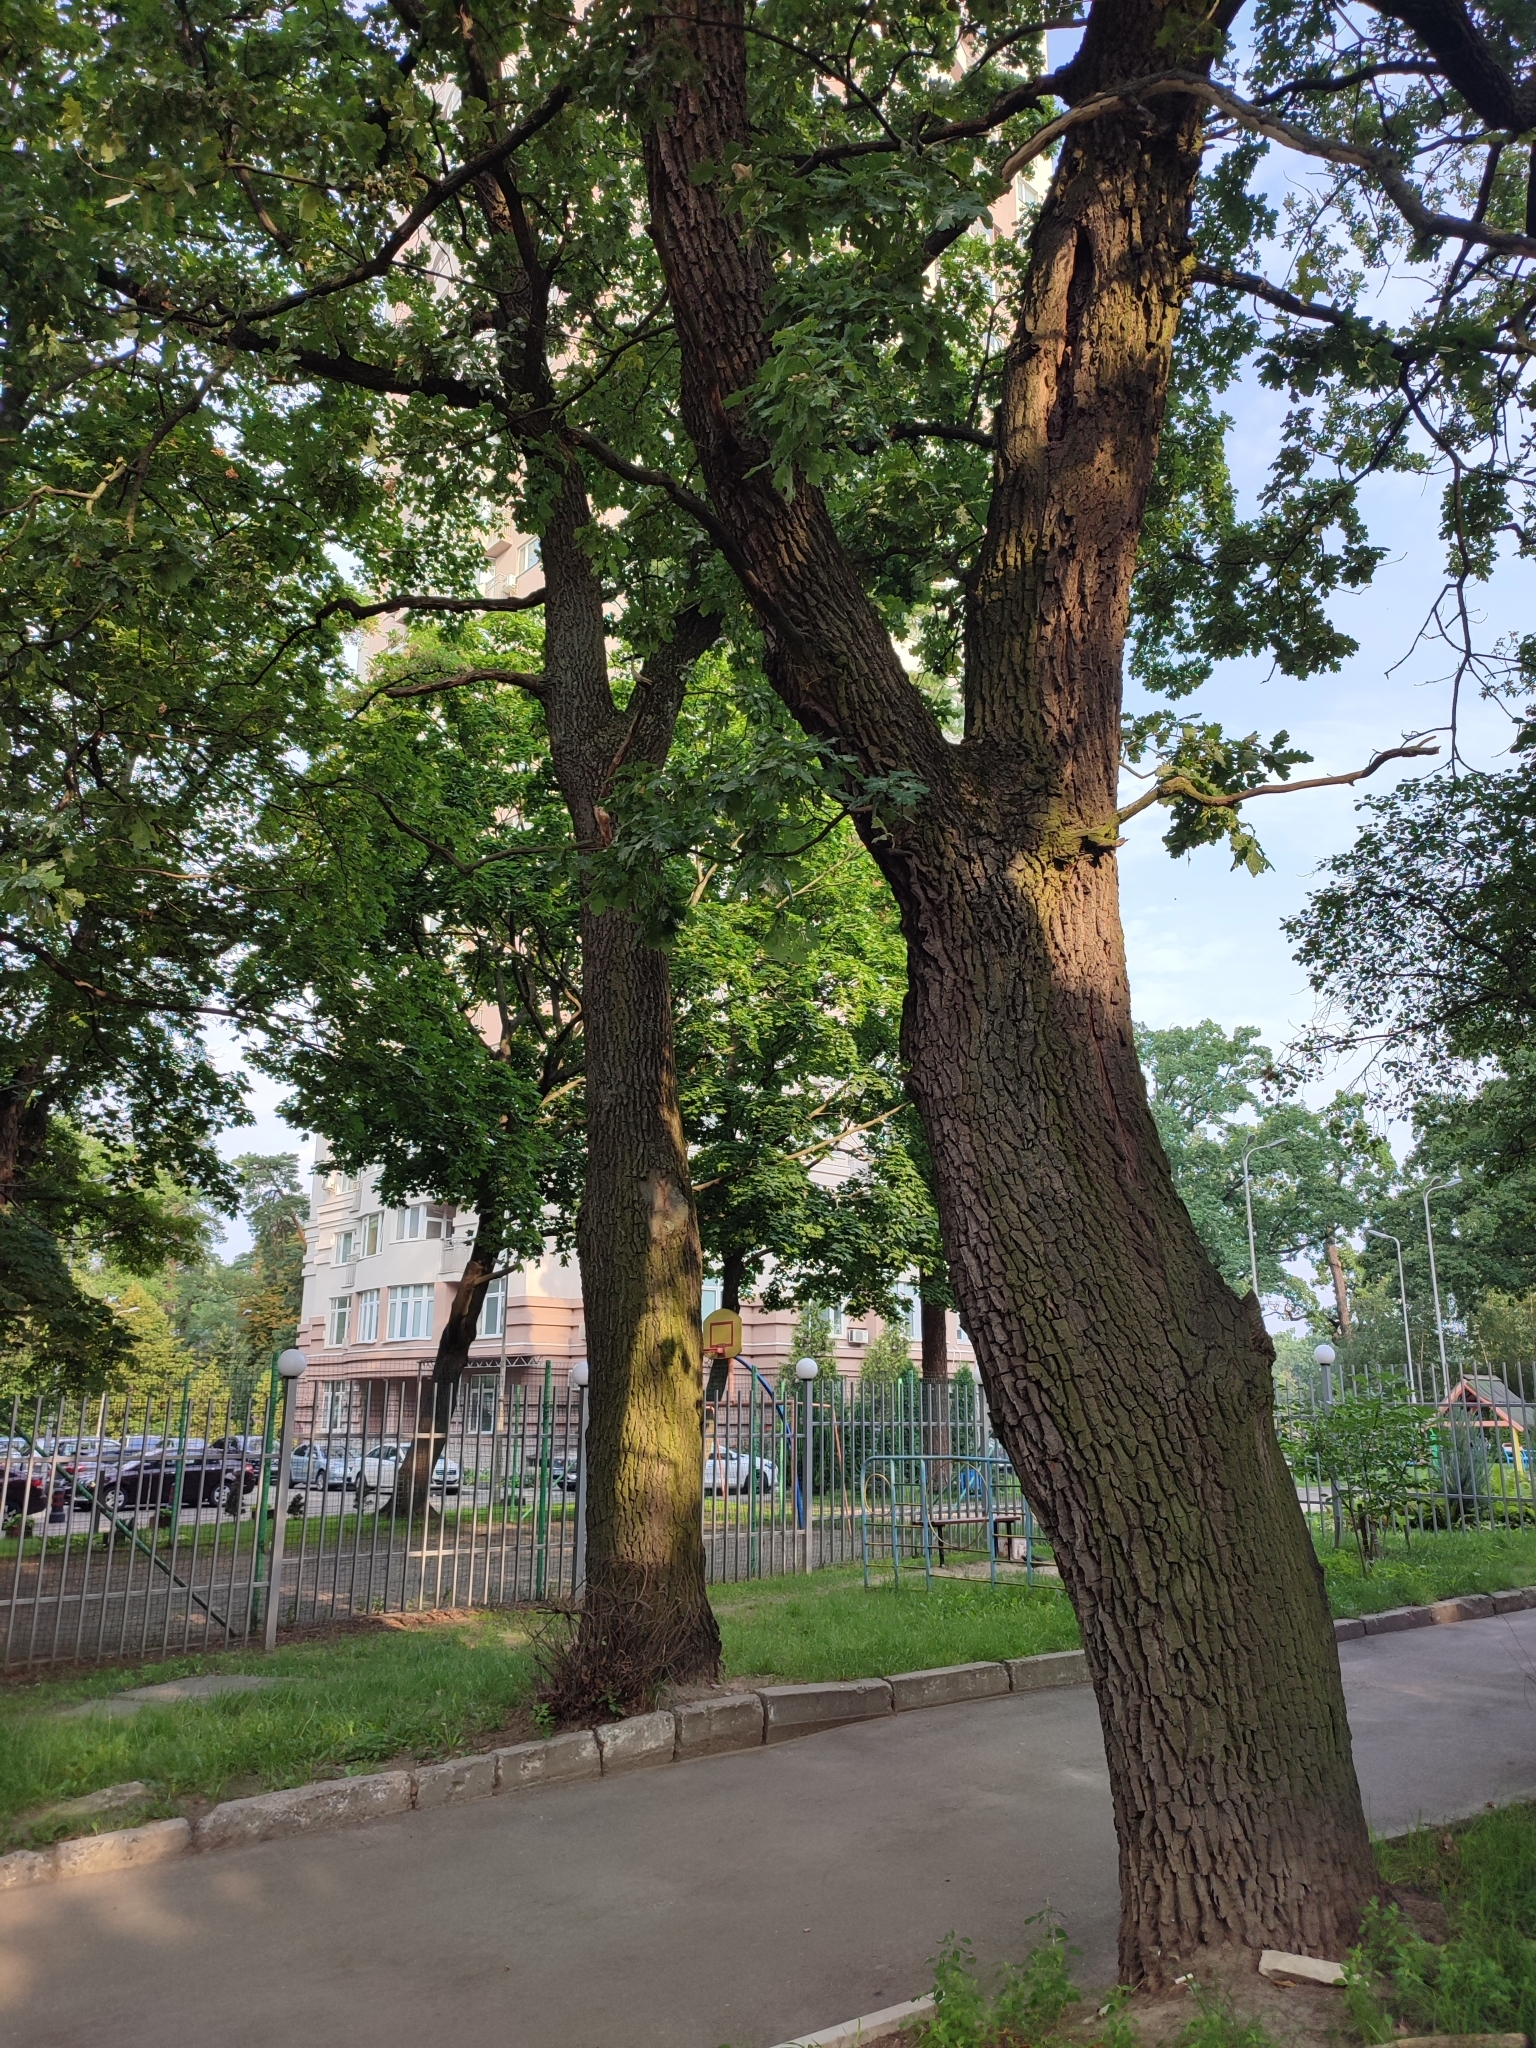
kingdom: Plantae
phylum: Tracheophyta
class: Magnoliopsida
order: Fagales
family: Fagaceae
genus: Quercus
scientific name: Quercus robur
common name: Pedunculate oak
